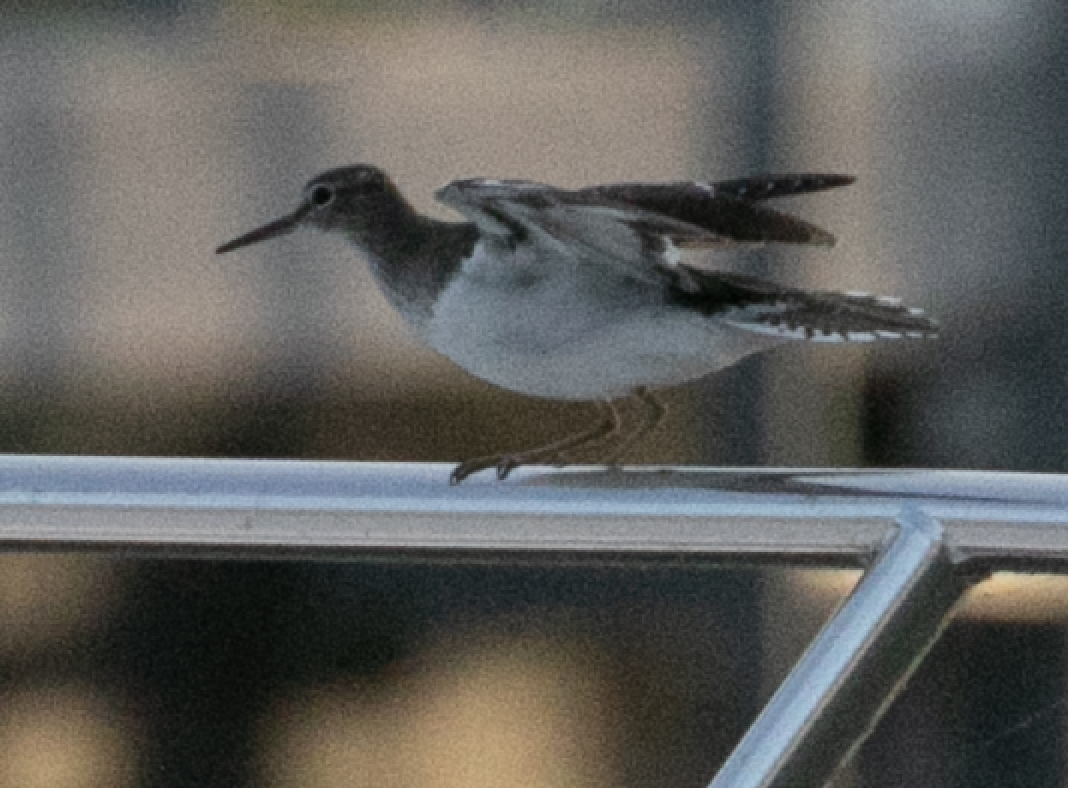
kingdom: Animalia
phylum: Chordata
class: Aves
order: Charadriiformes
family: Scolopacidae
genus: Actitis
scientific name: Actitis hypoleucos
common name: Common sandpiper
